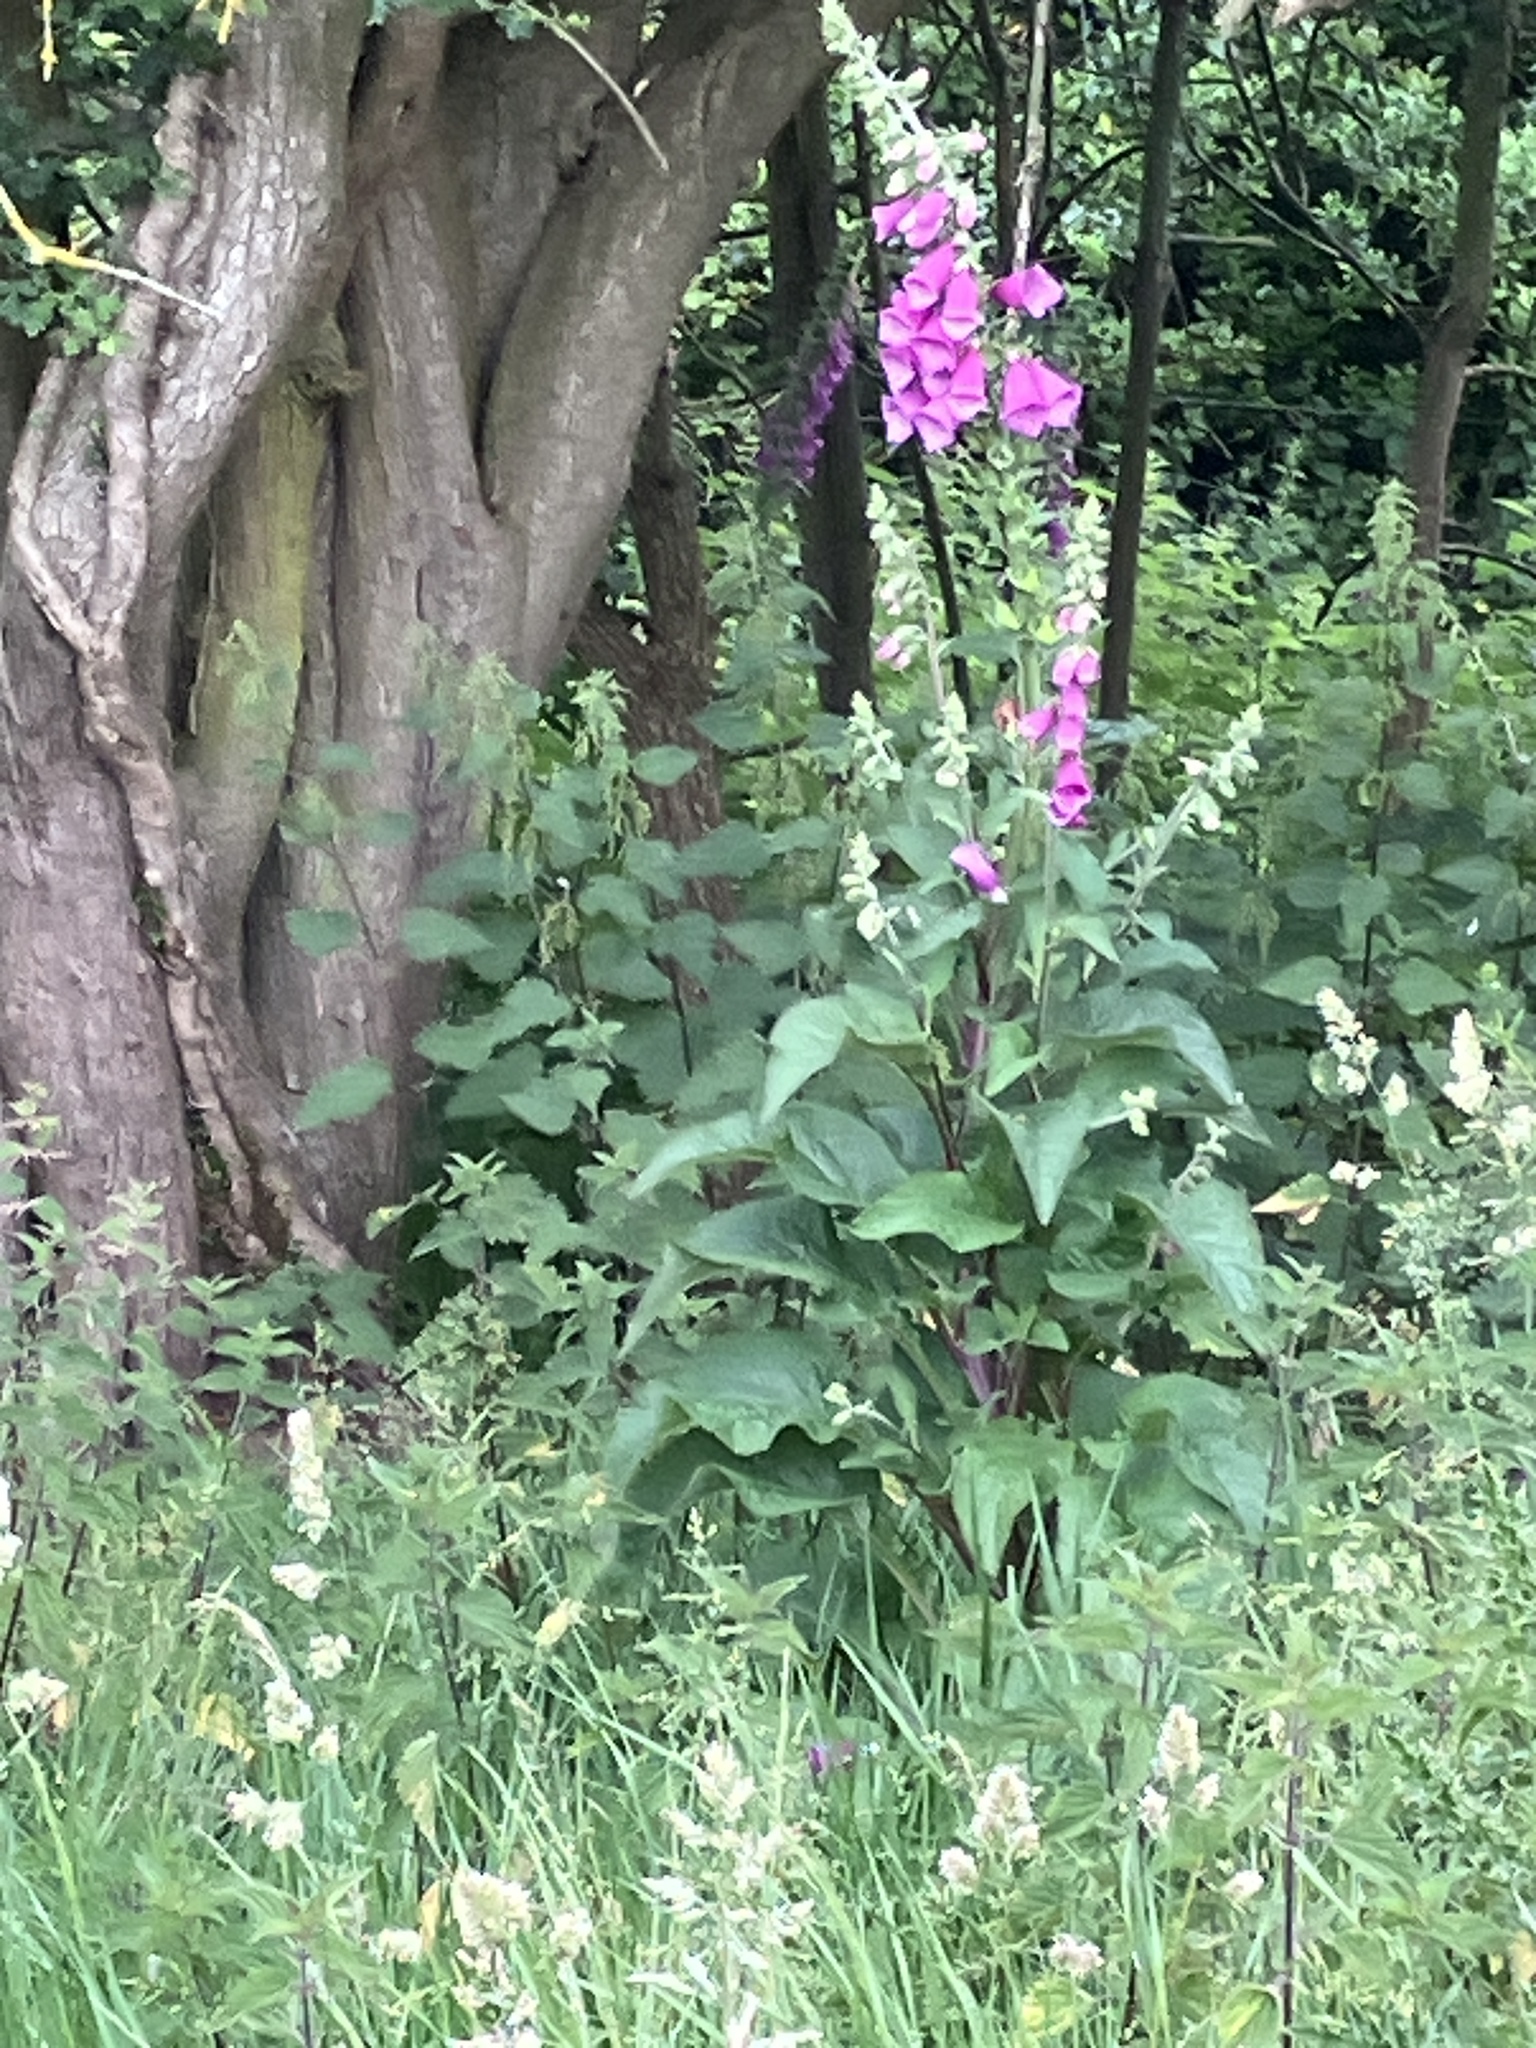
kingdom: Plantae
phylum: Tracheophyta
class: Magnoliopsida
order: Lamiales
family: Plantaginaceae
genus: Digitalis
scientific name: Digitalis purpurea
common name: Foxglove
